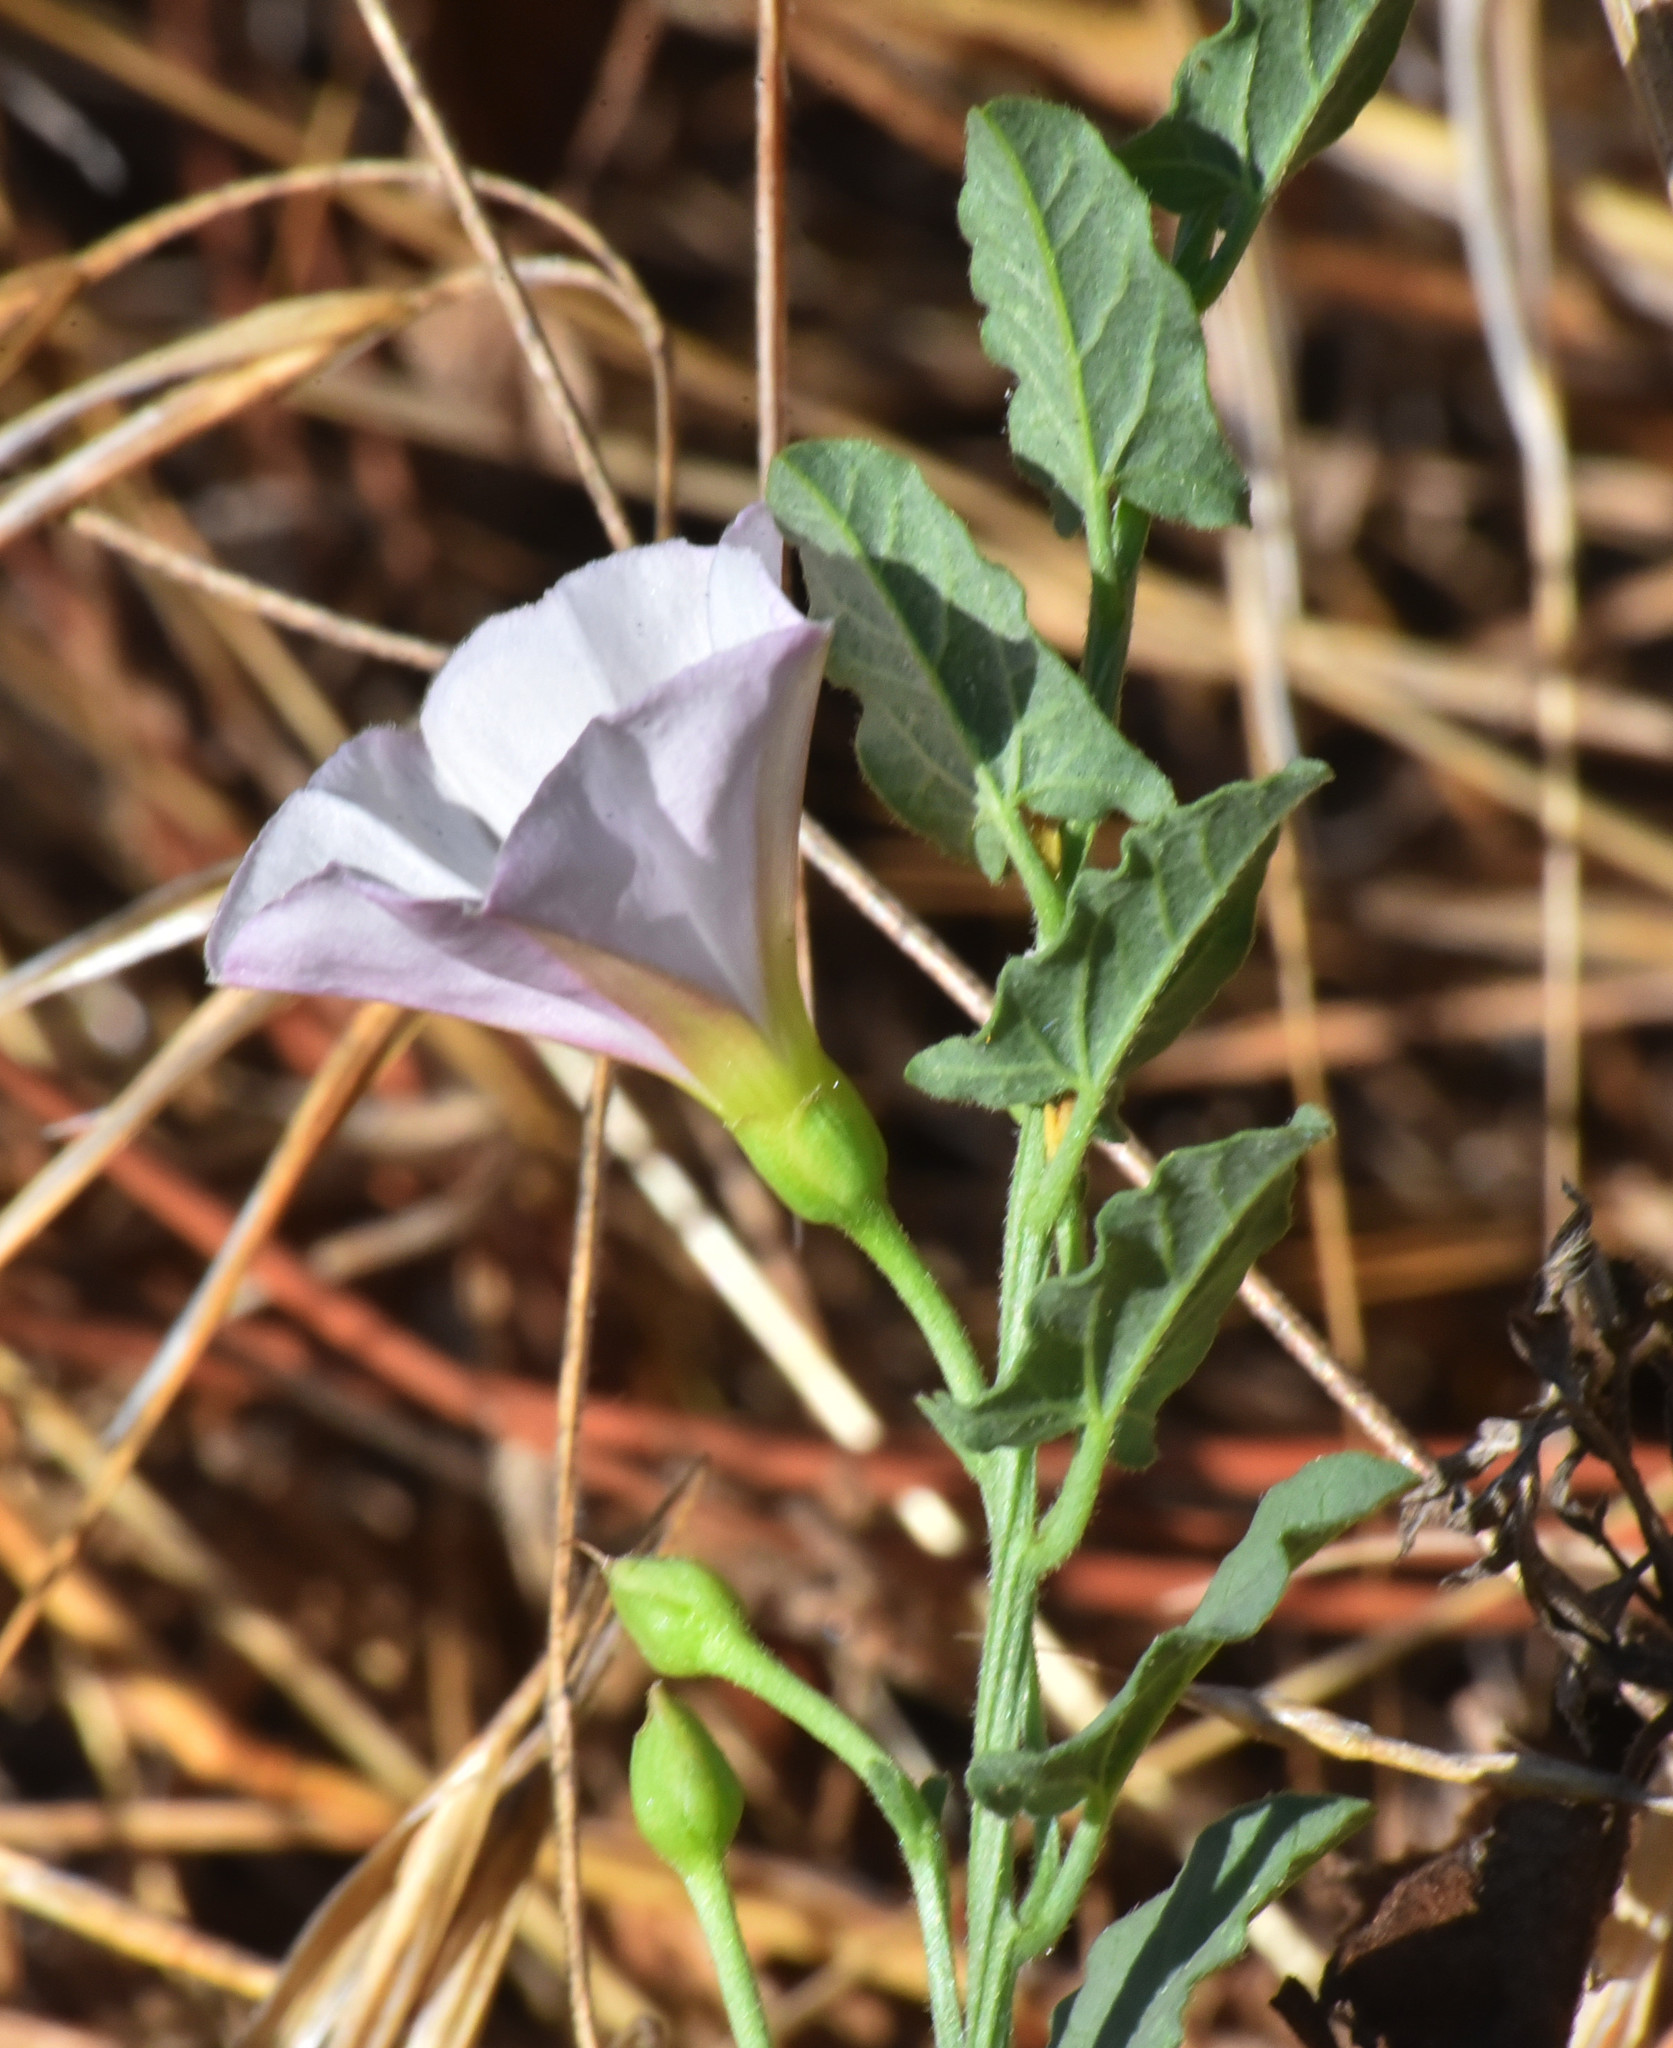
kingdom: Plantae
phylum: Tracheophyta
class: Magnoliopsida
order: Solanales
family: Convolvulaceae
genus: Convolvulus
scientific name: Convolvulus arvensis
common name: Field bindweed
